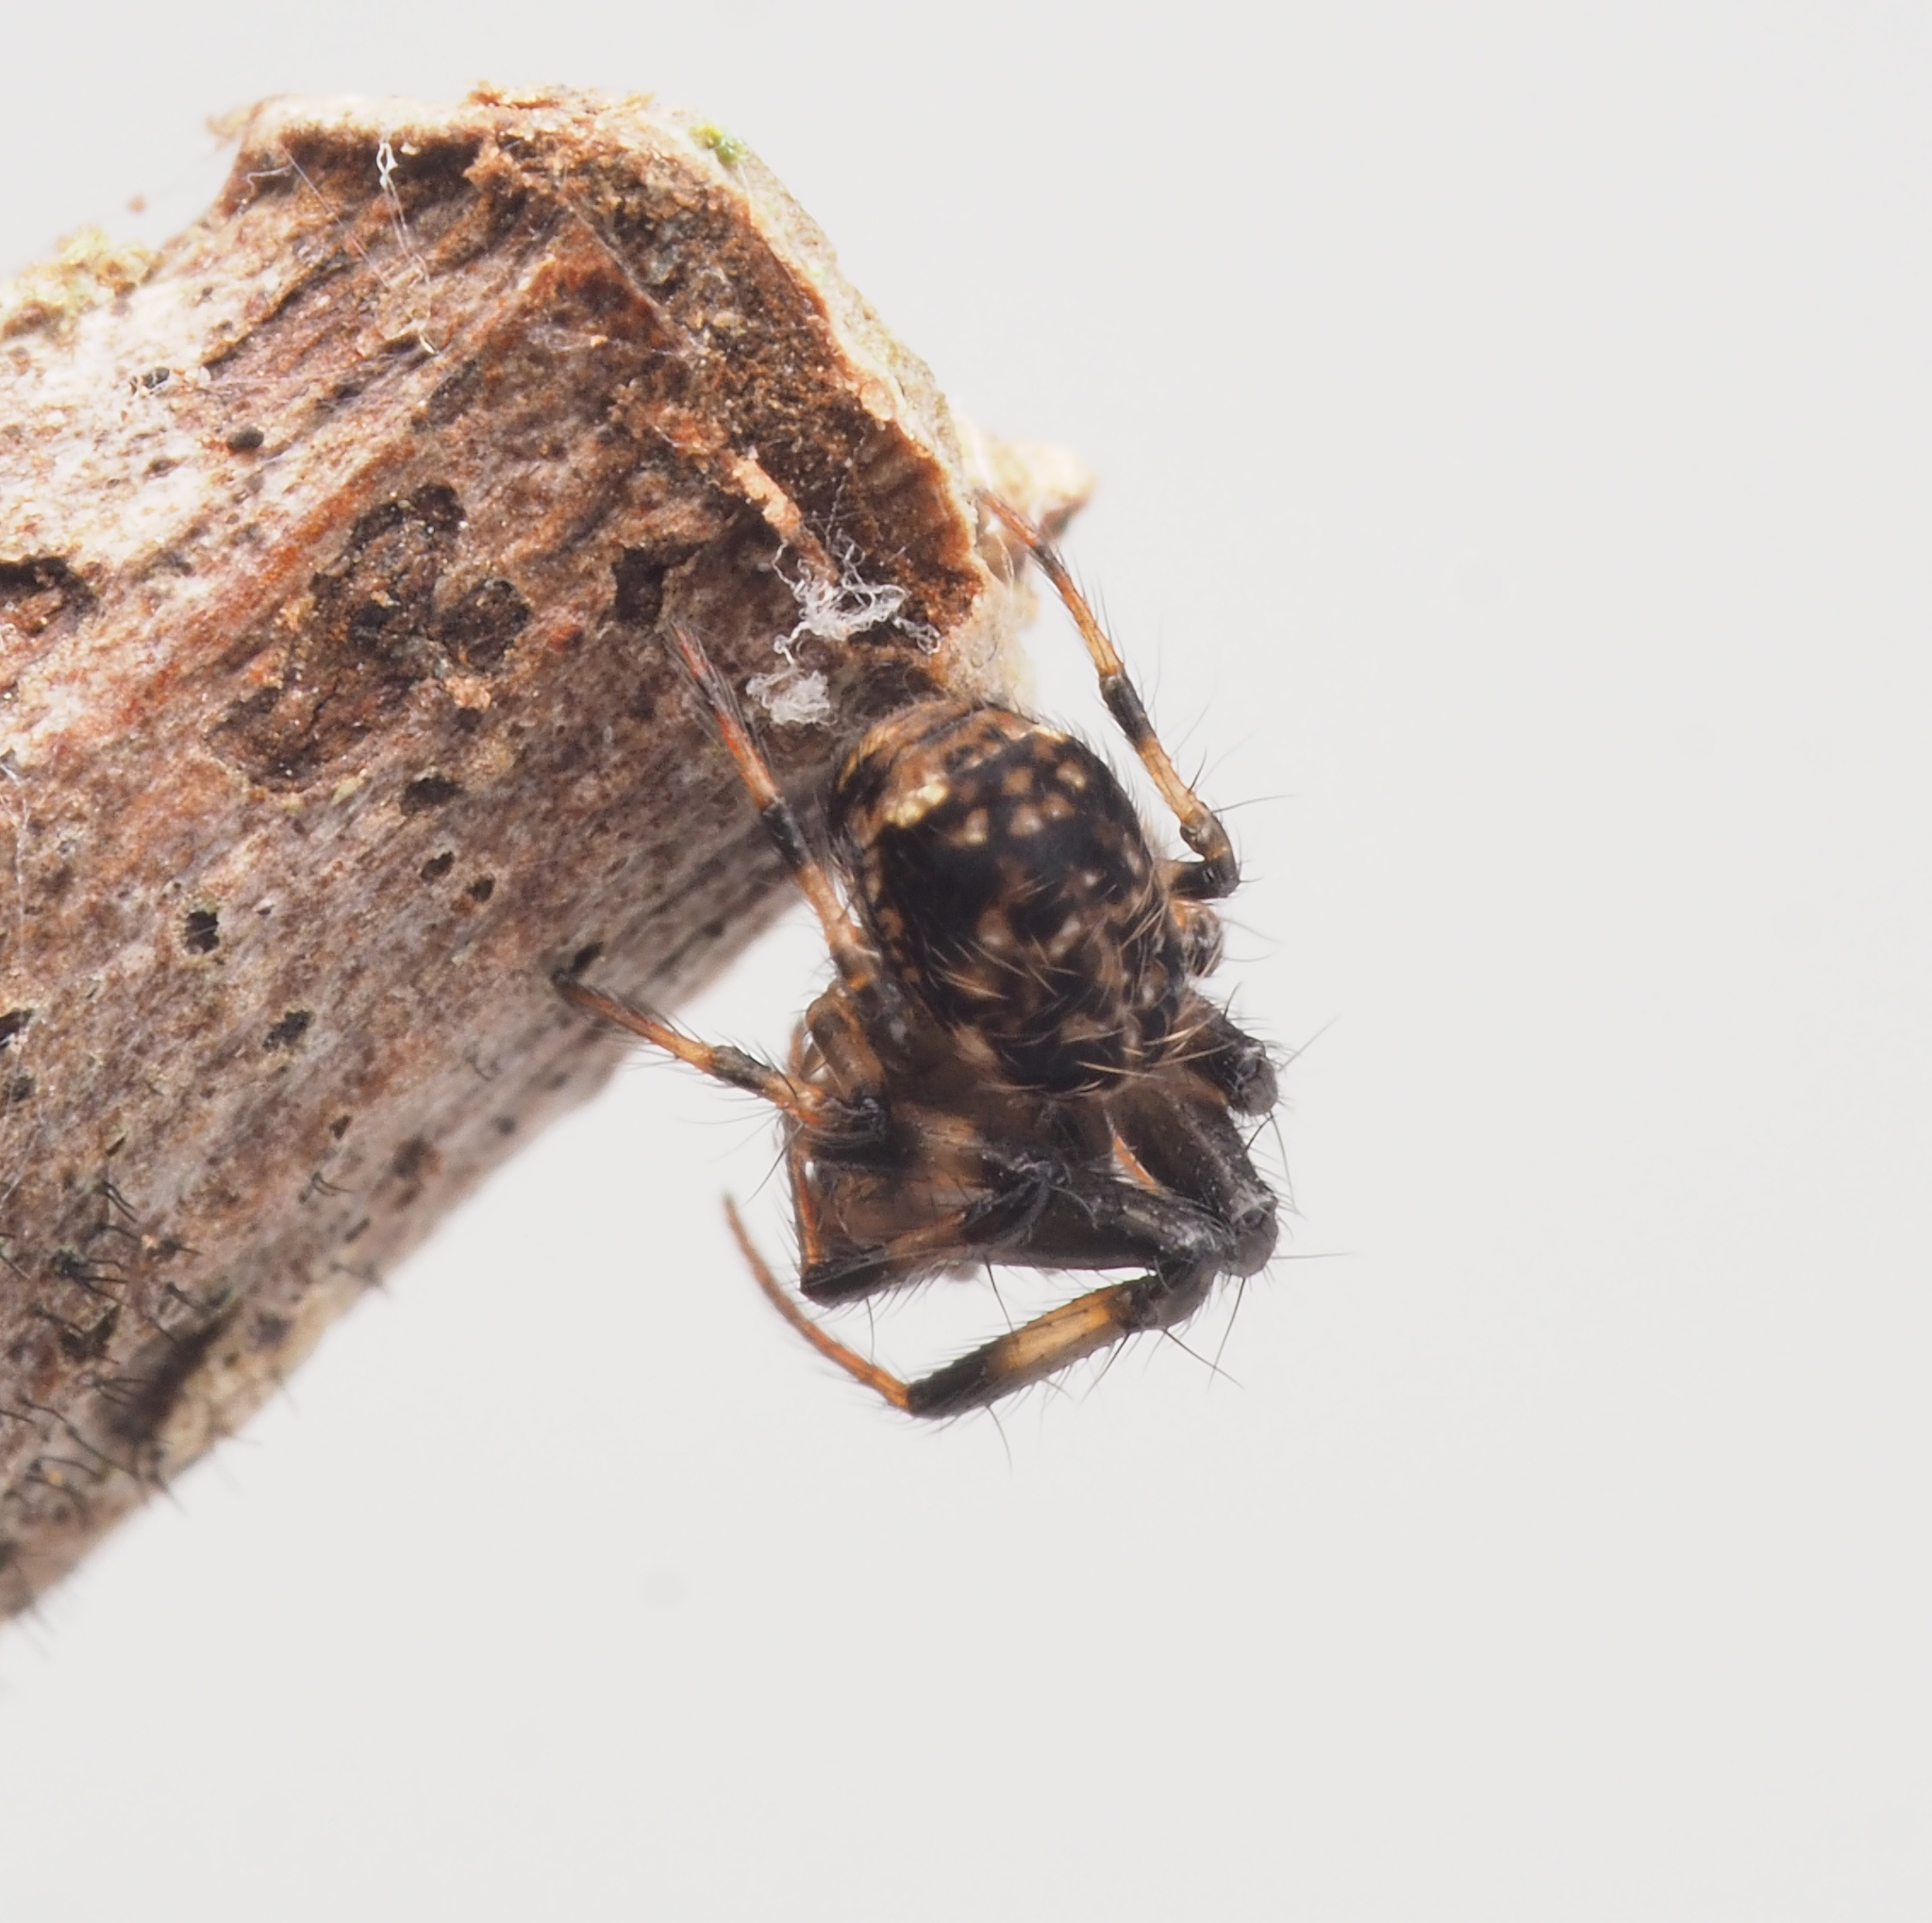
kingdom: Animalia
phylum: Arthropoda
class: Arachnida
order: Araneae
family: Theridiosomatidae
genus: Baalzebub
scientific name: Baalzebub
